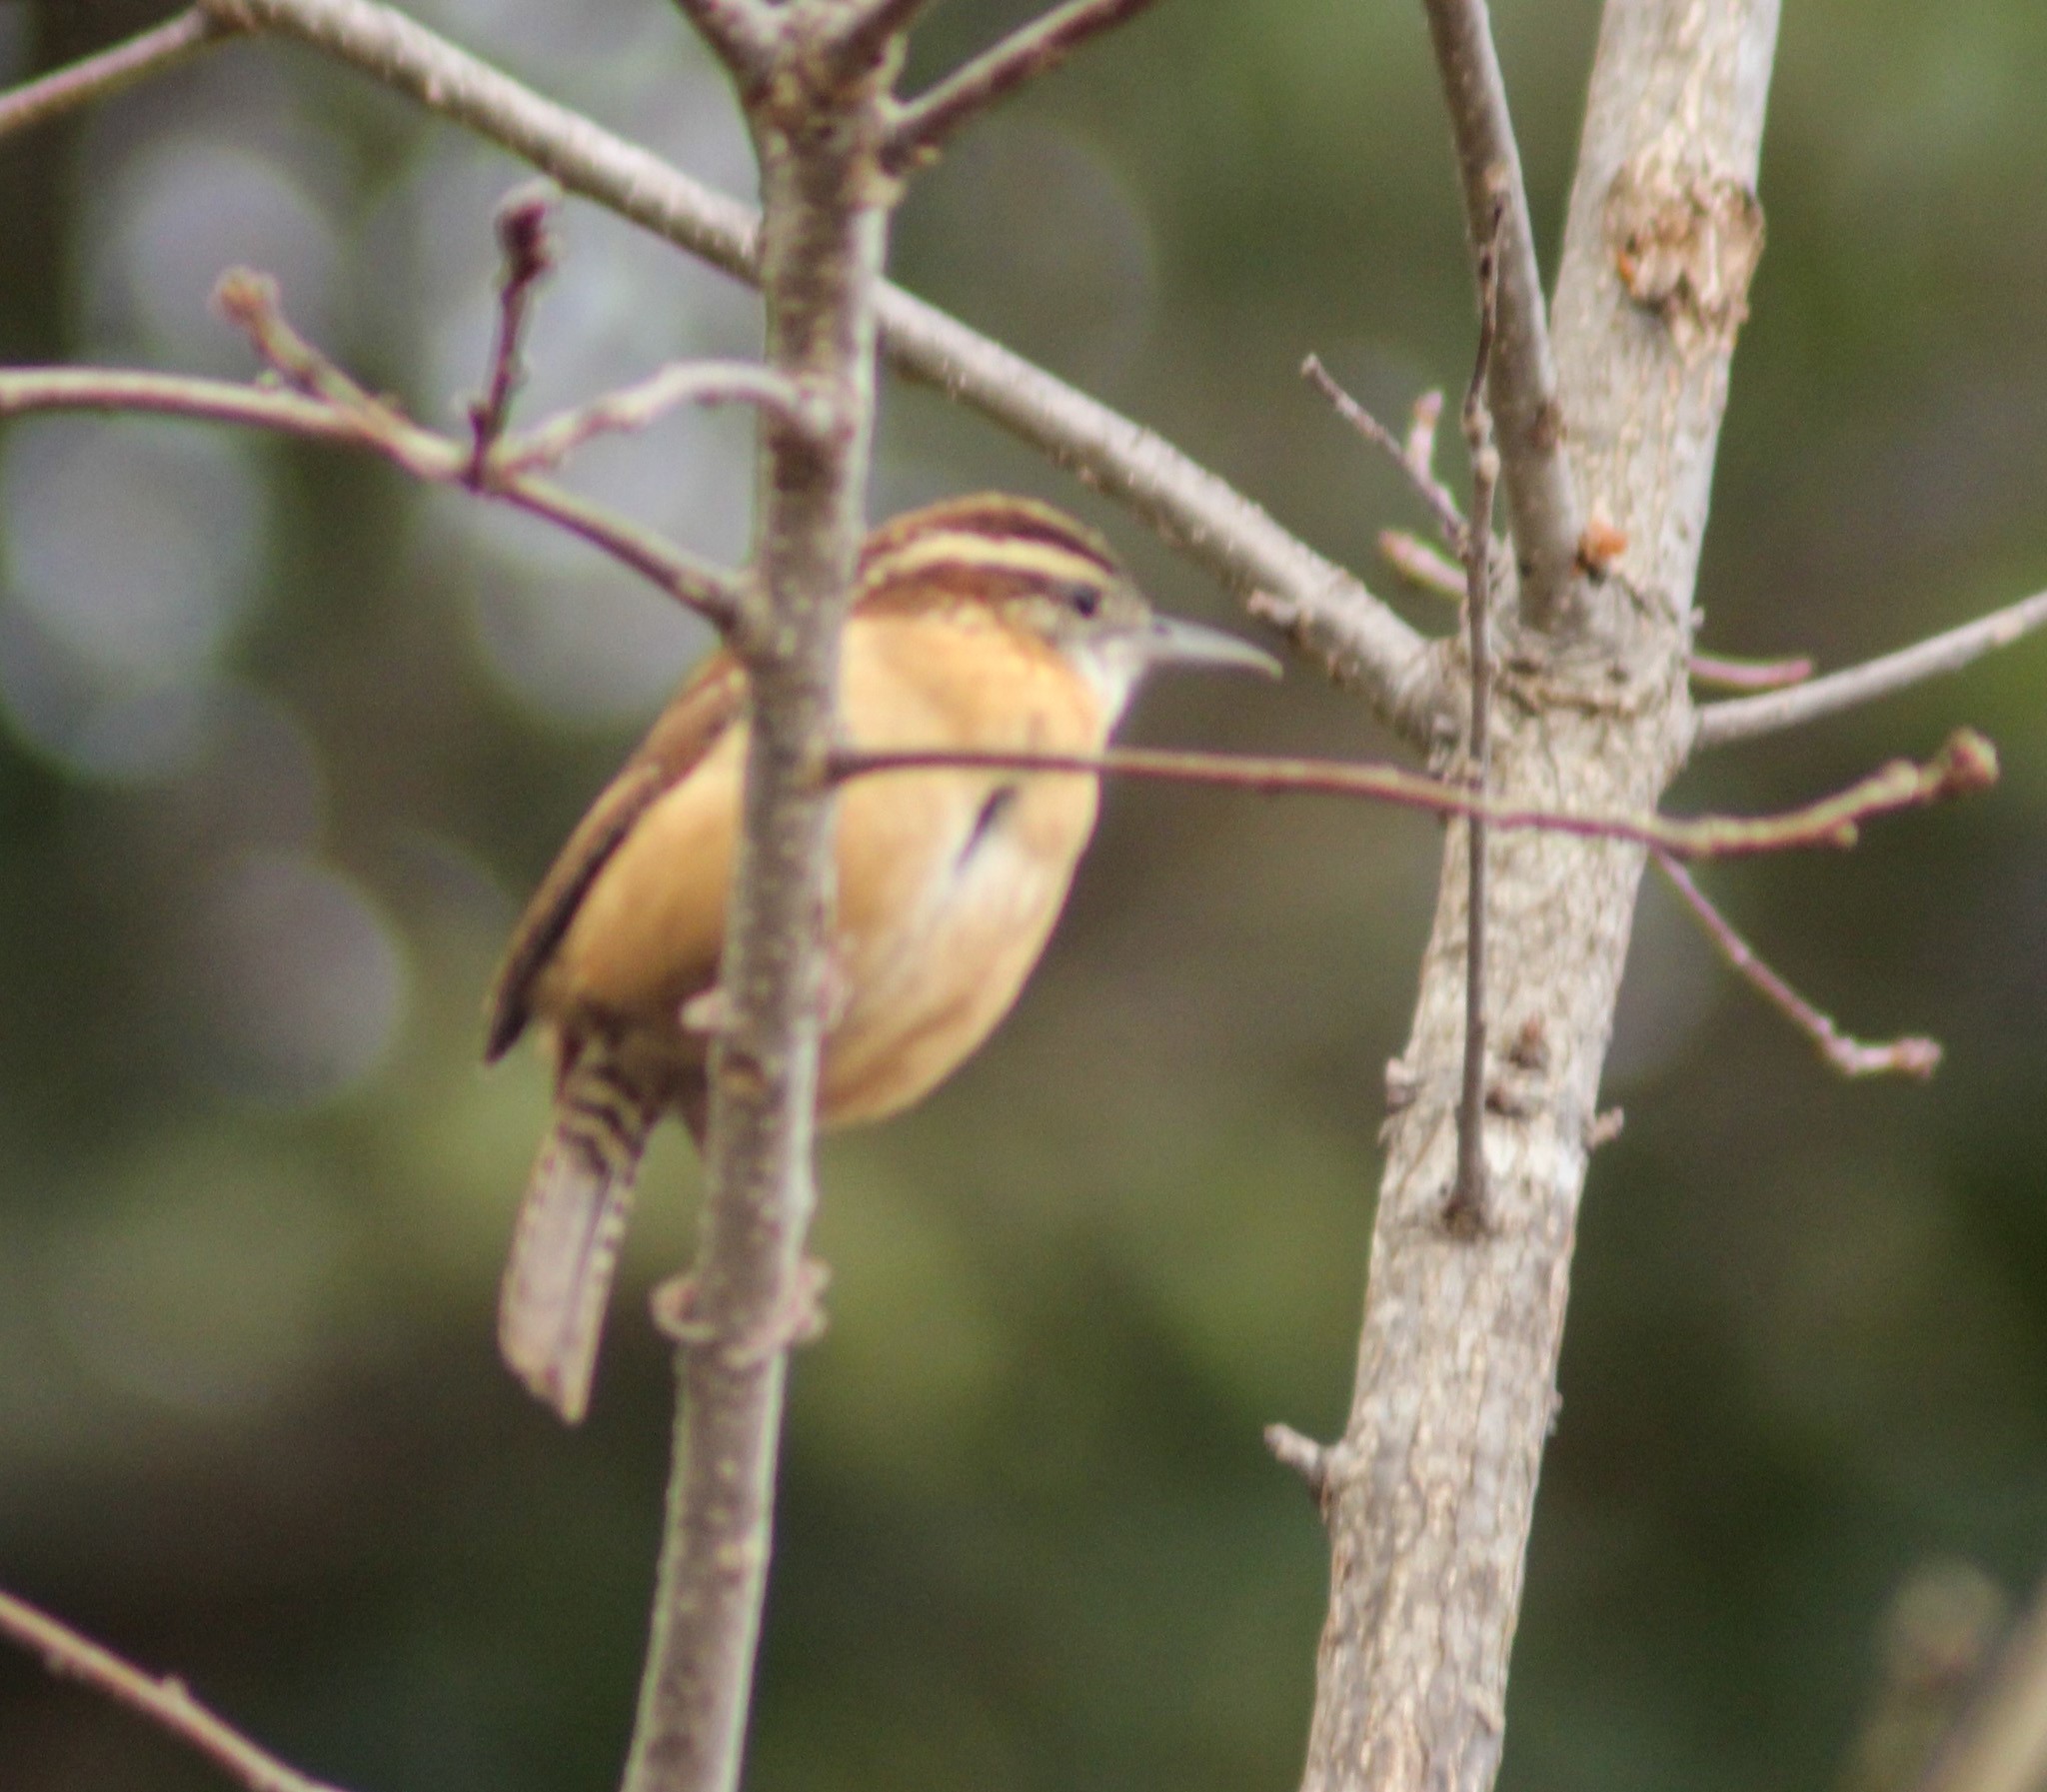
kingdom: Animalia
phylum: Chordata
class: Aves
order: Passeriformes
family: Troglodytidae
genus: Thryothorus
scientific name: Thryothorus ludovicianus
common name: Carolina wren
